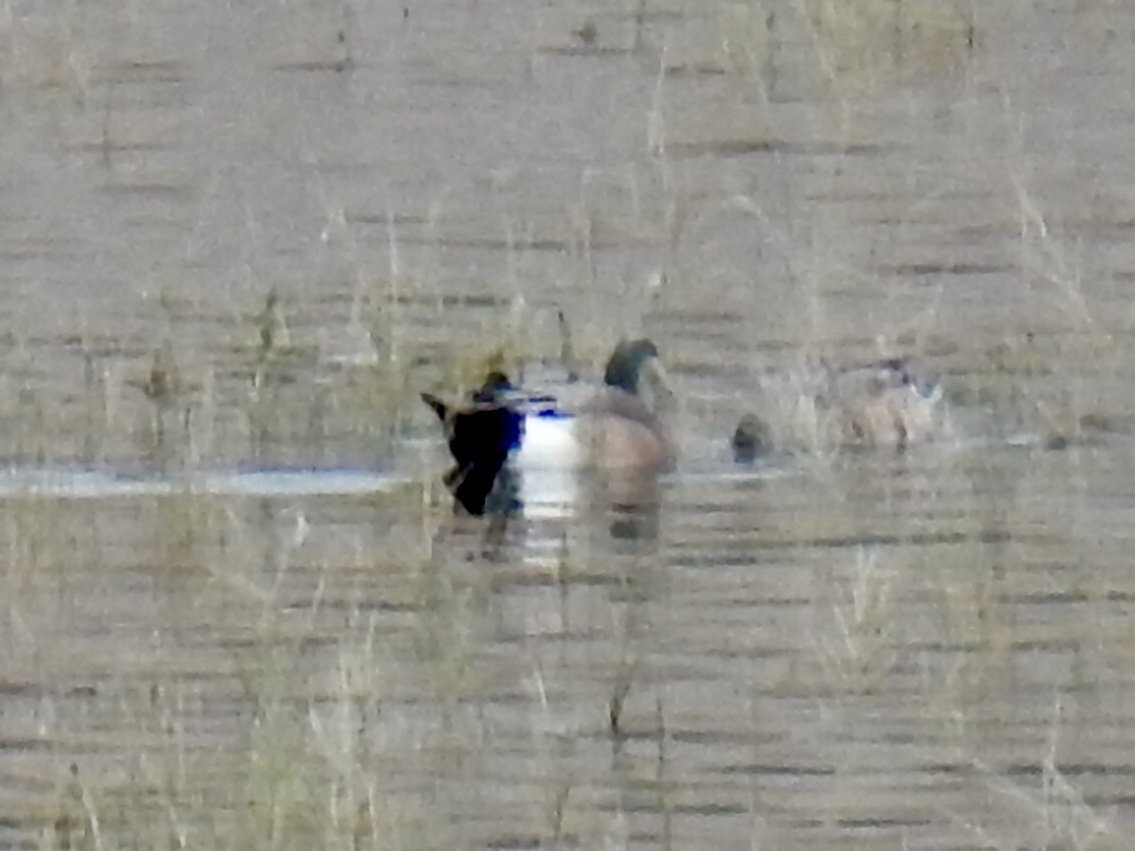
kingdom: Animalia
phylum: Chordata
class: Aves
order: Anseriformes
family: Anatidae
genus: Mareca
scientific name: Mareca americana
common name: American wigeon
